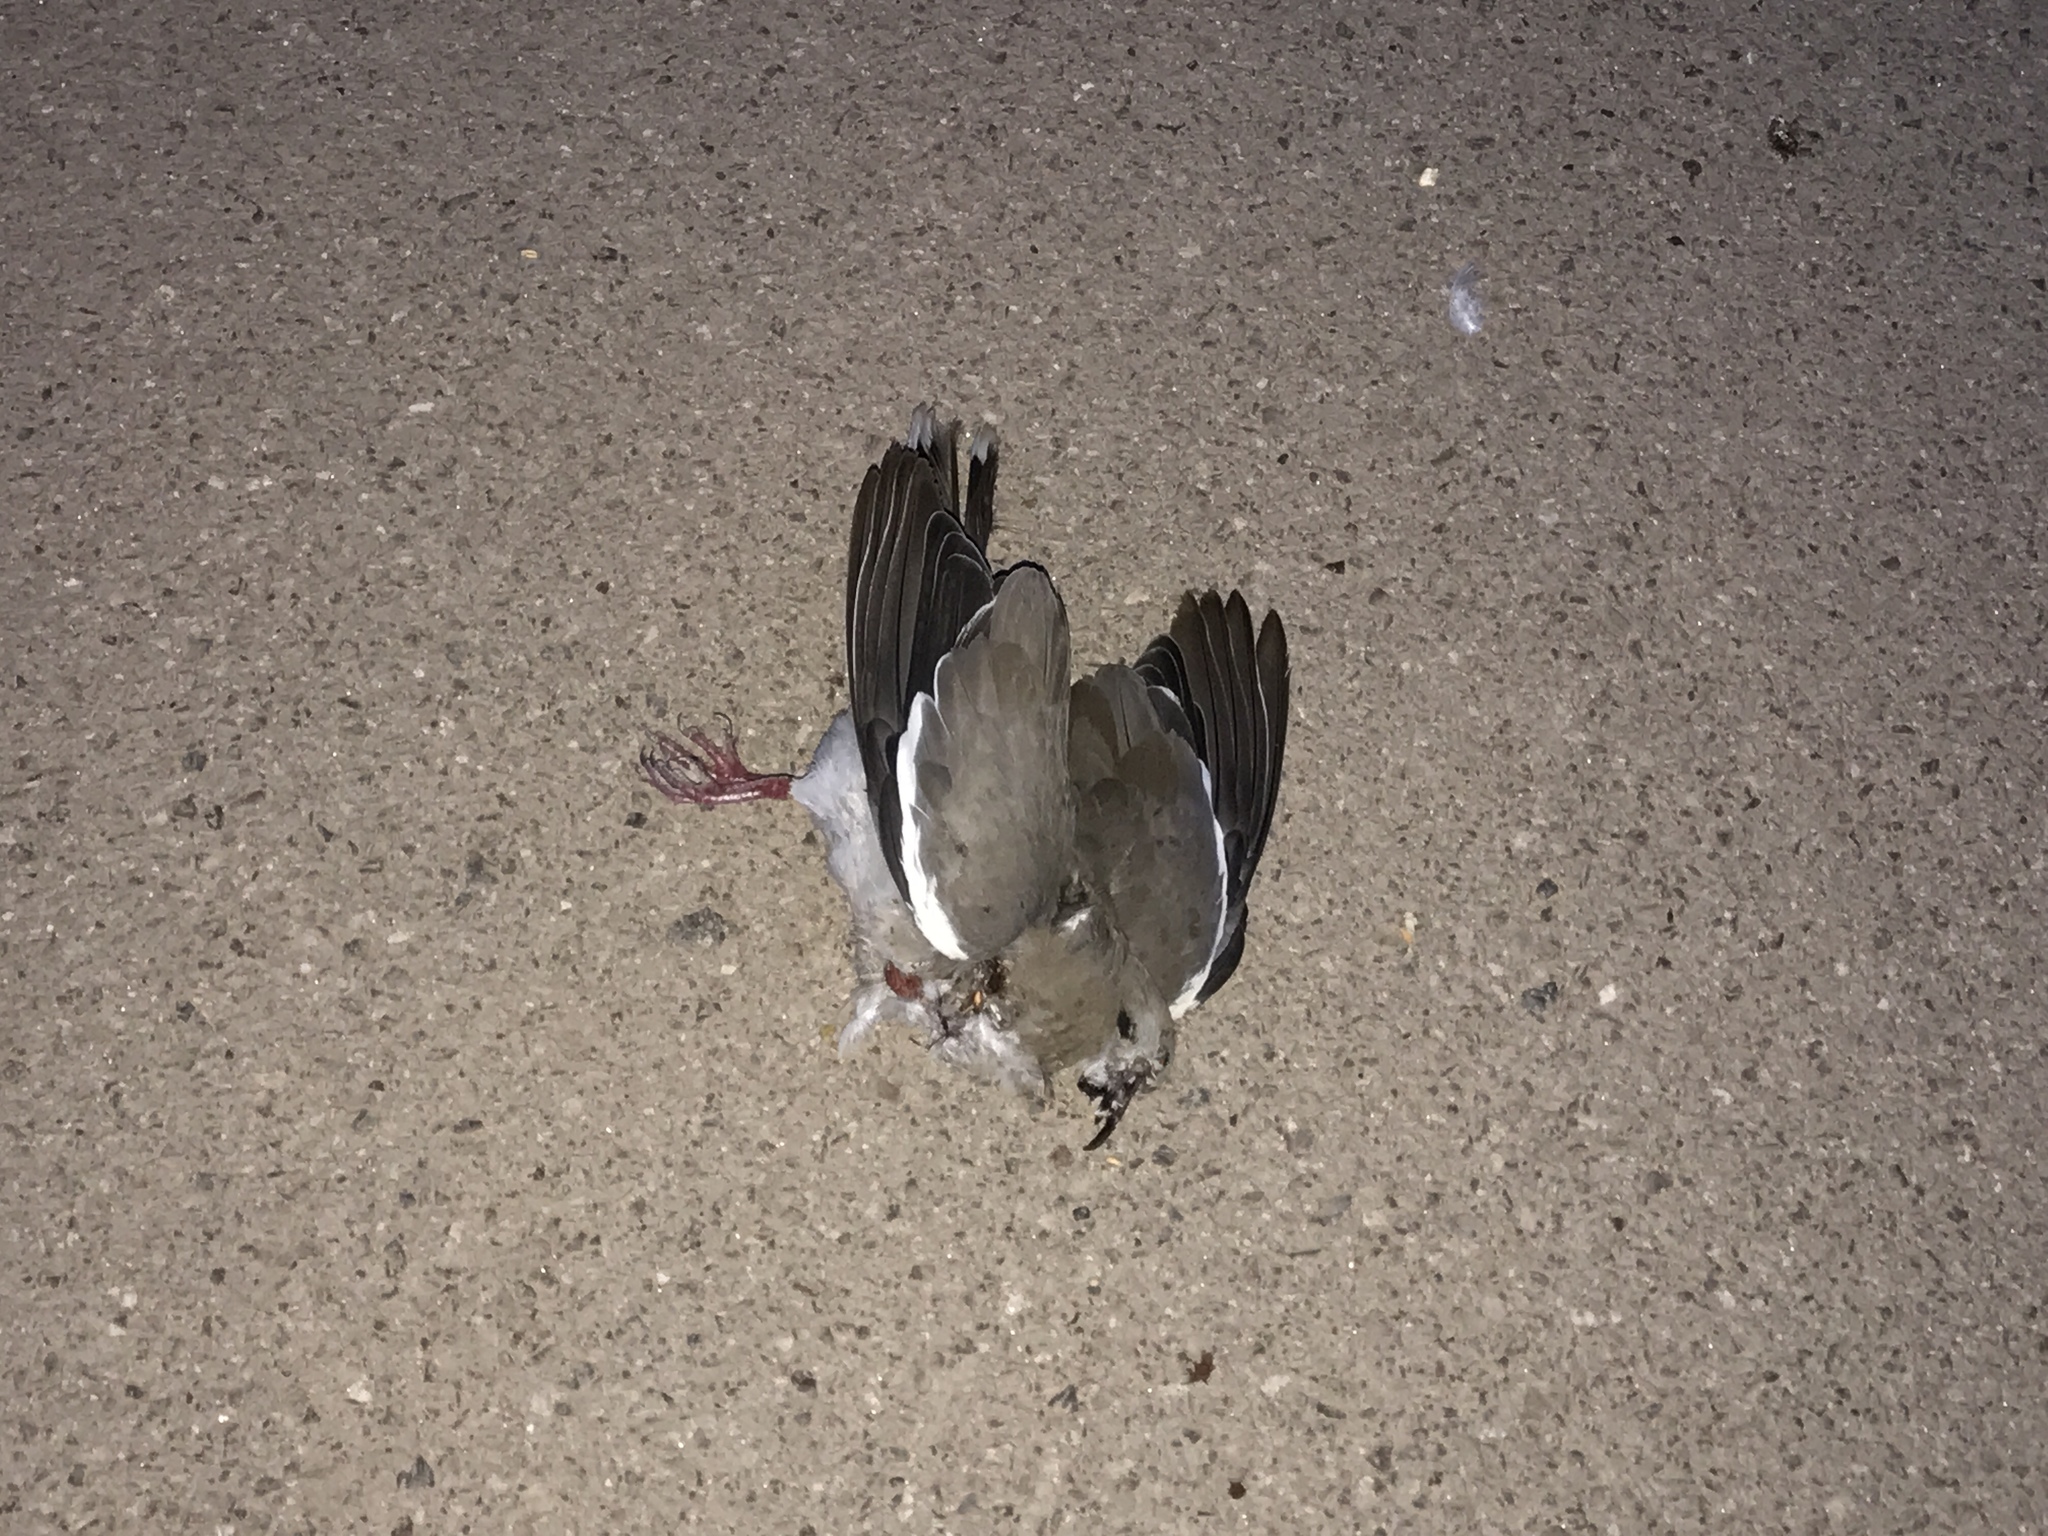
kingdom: Animalia
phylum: Chordata
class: Aves
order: Columbiformes
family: Columbidae
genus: Zenaida
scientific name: Zenaida asiatica
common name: White-winged dove
